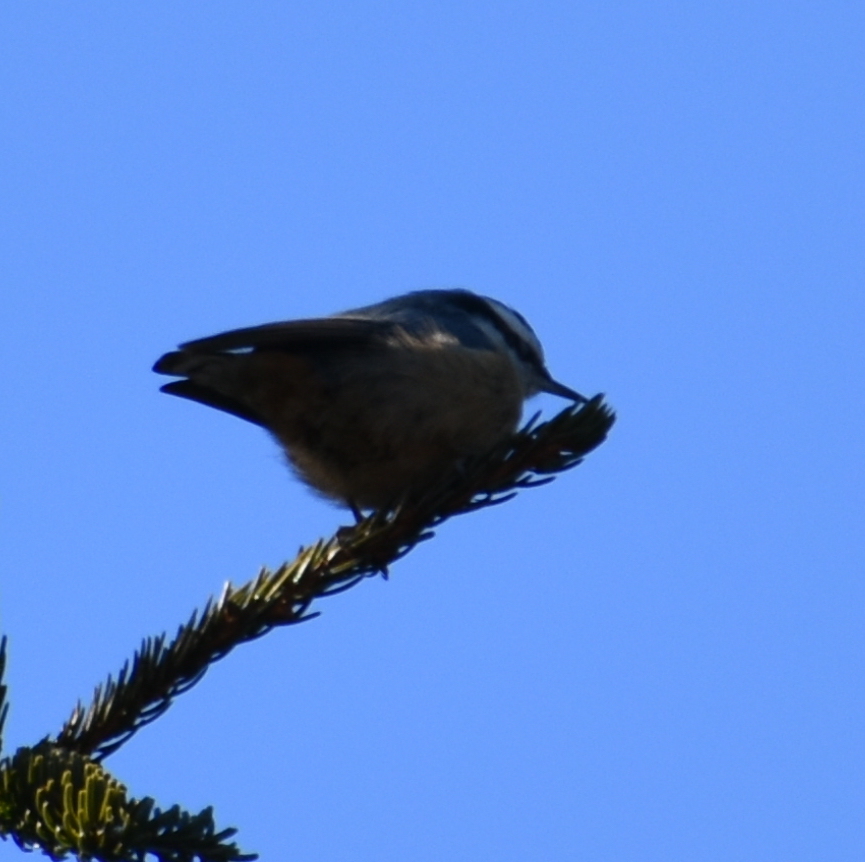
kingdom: Animalia
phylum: Chordata
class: Aves
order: Passeriformes
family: Sittidae
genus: Sitta
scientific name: Sitta canadensis
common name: Red-breasted nuthatch
